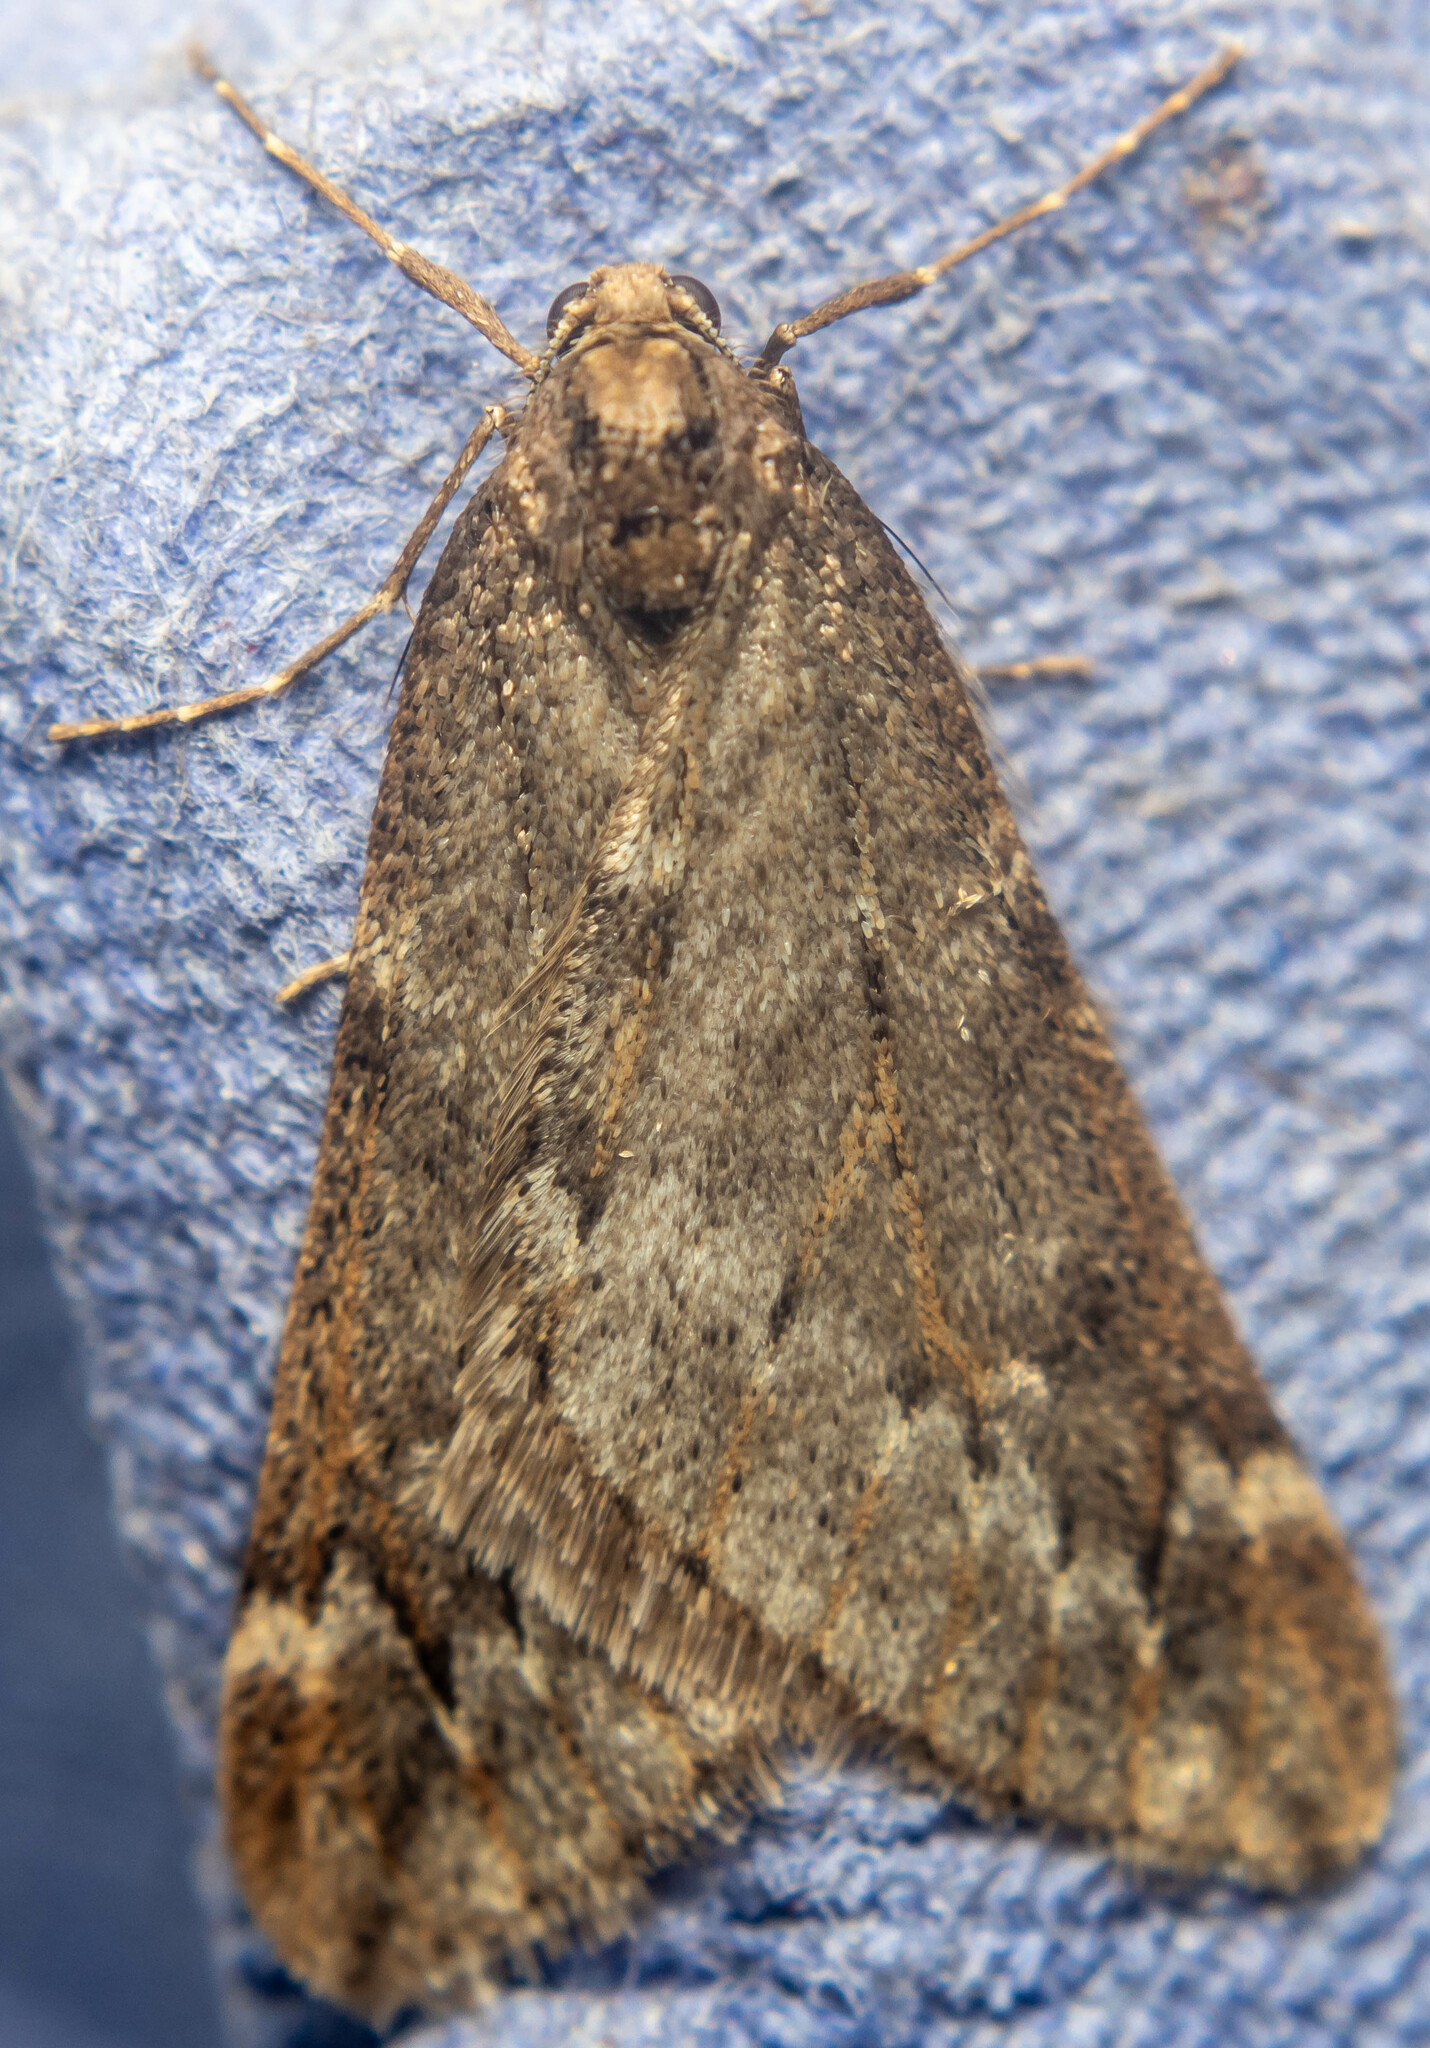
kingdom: Animalia
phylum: Arthropoda
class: Insecta
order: Lepidoptera
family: Geometridae
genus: Alsophila
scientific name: Alsophila aescularia
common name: March moth
